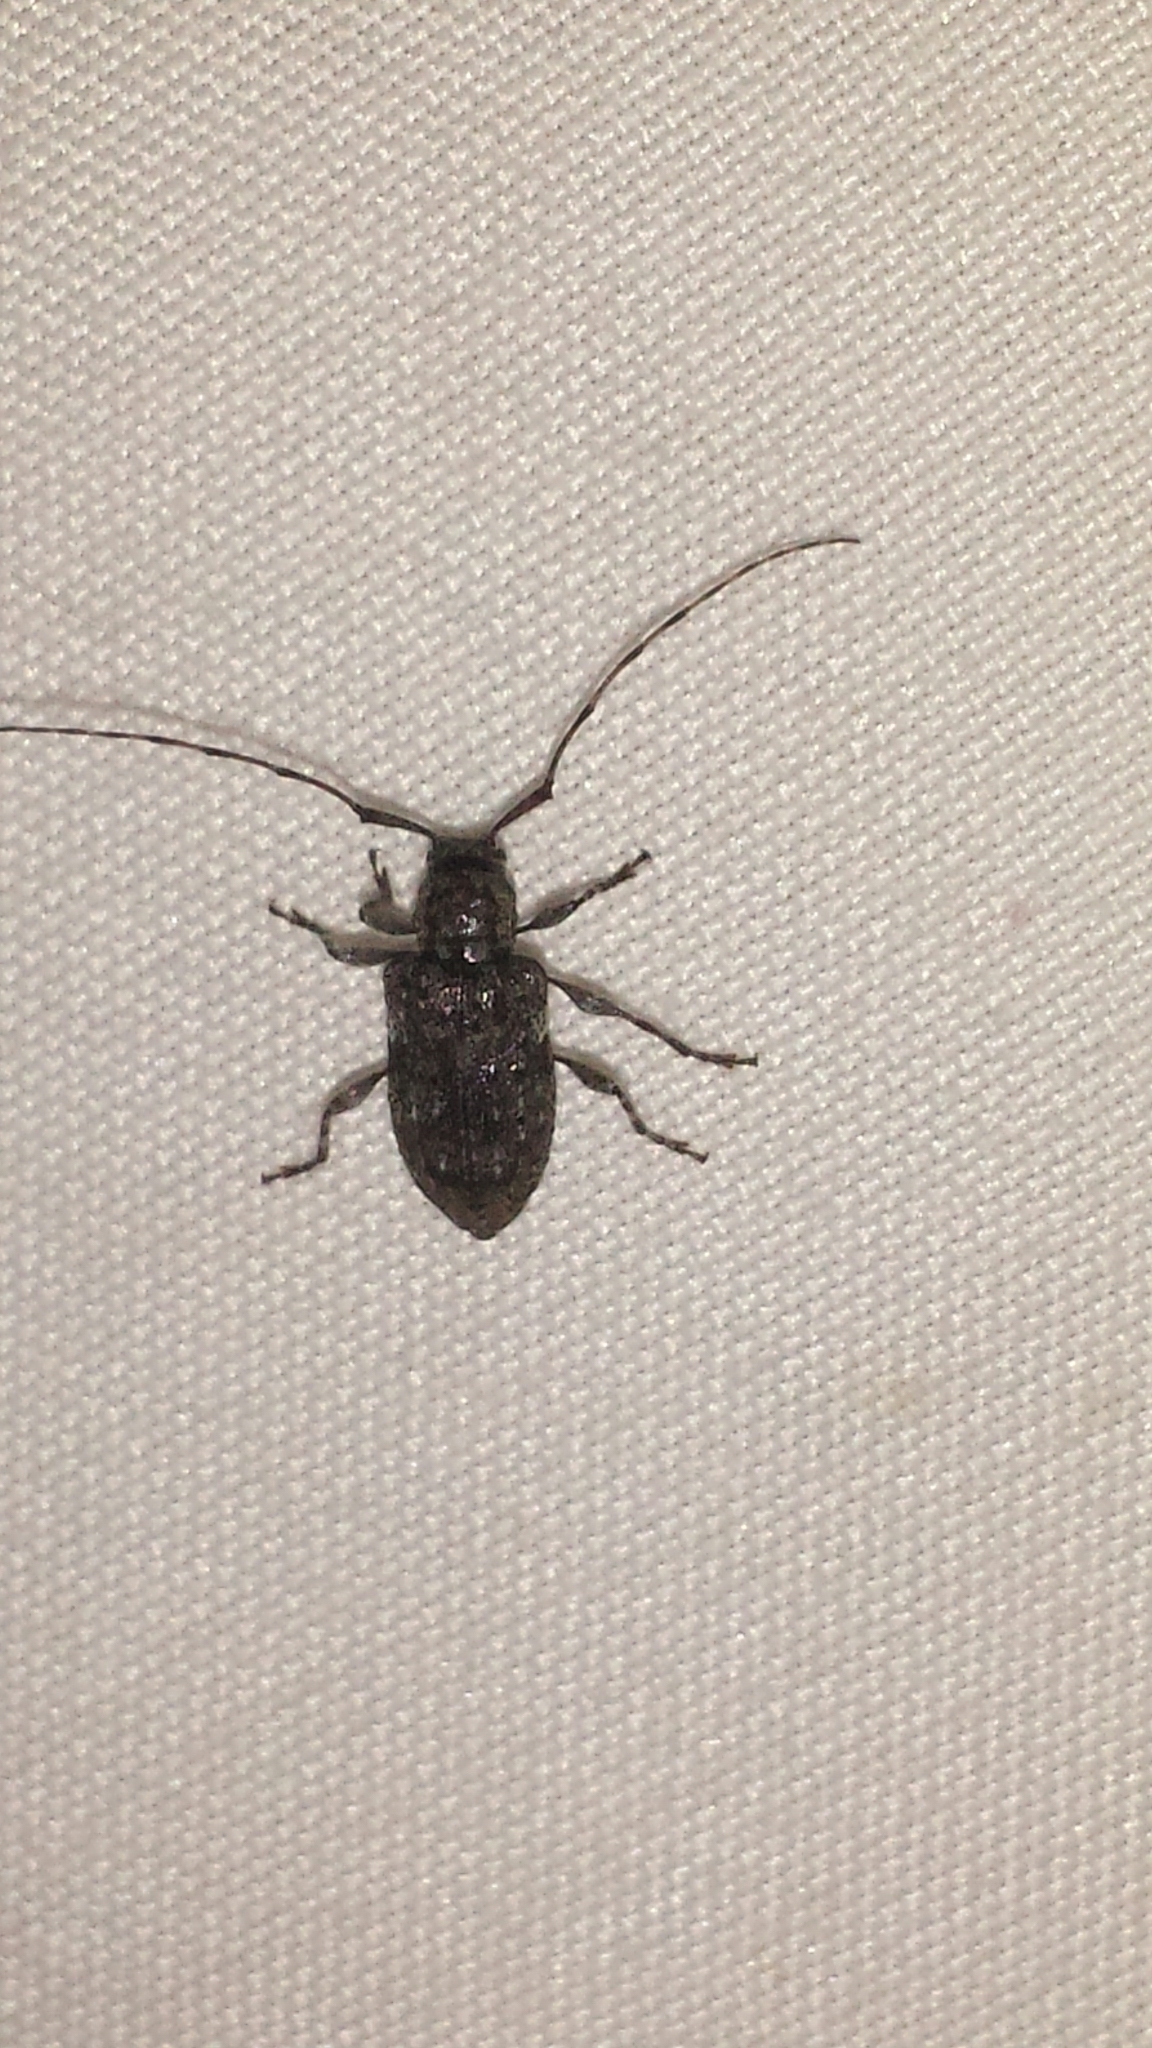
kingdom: Animalia
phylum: Arthropoda
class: Insecta
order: Coleoptera
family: Cerambycidae
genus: Astylopsis
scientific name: Astylopsis sexguttata
